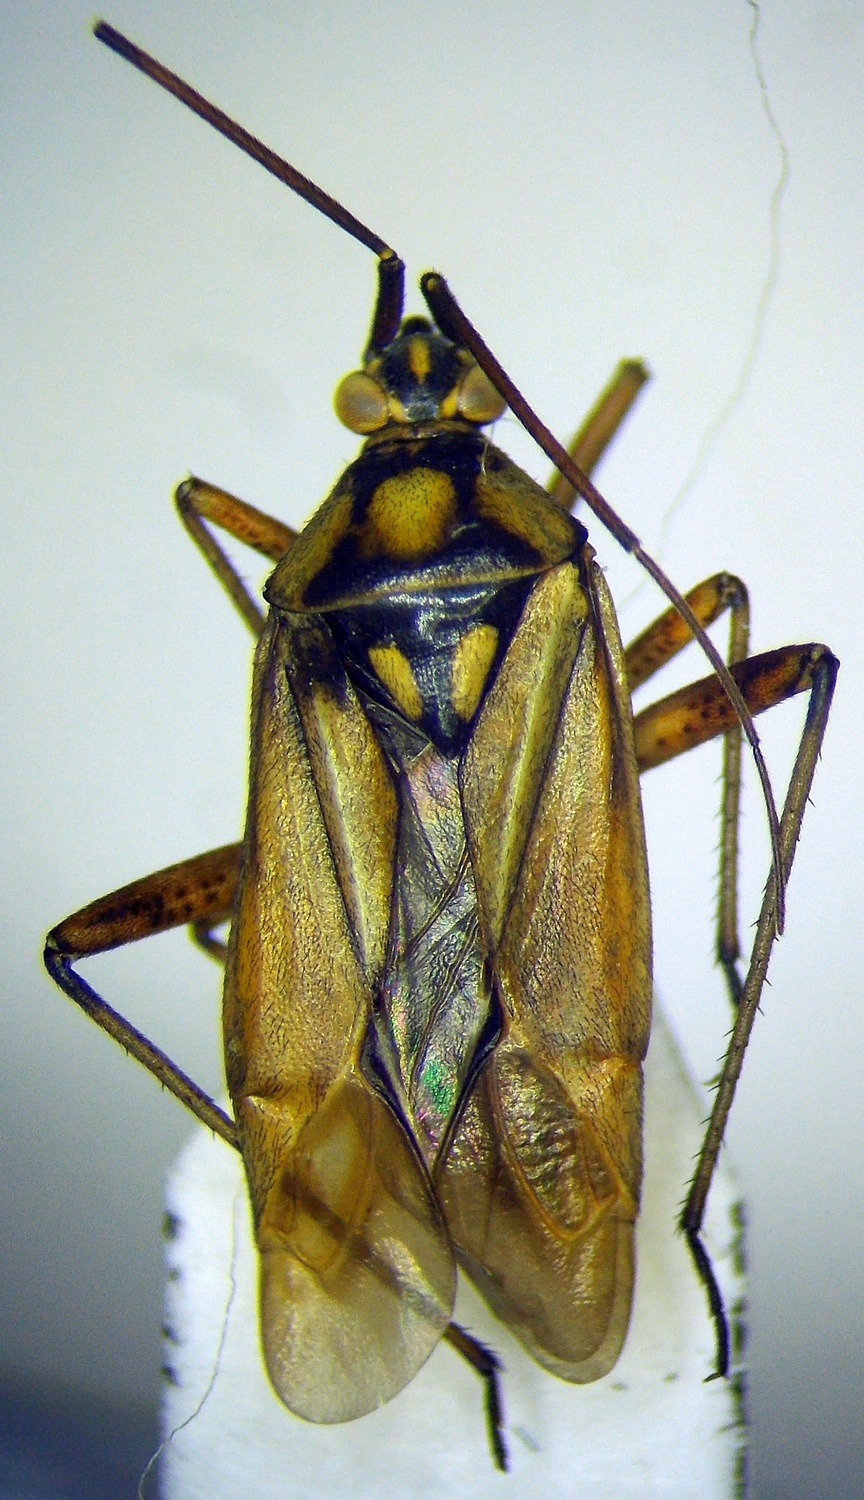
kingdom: Animalia
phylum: Arthropoda
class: Insecta
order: Hemiptera
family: Miridae
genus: Calocoris
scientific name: Calocoris roseomaculatus
